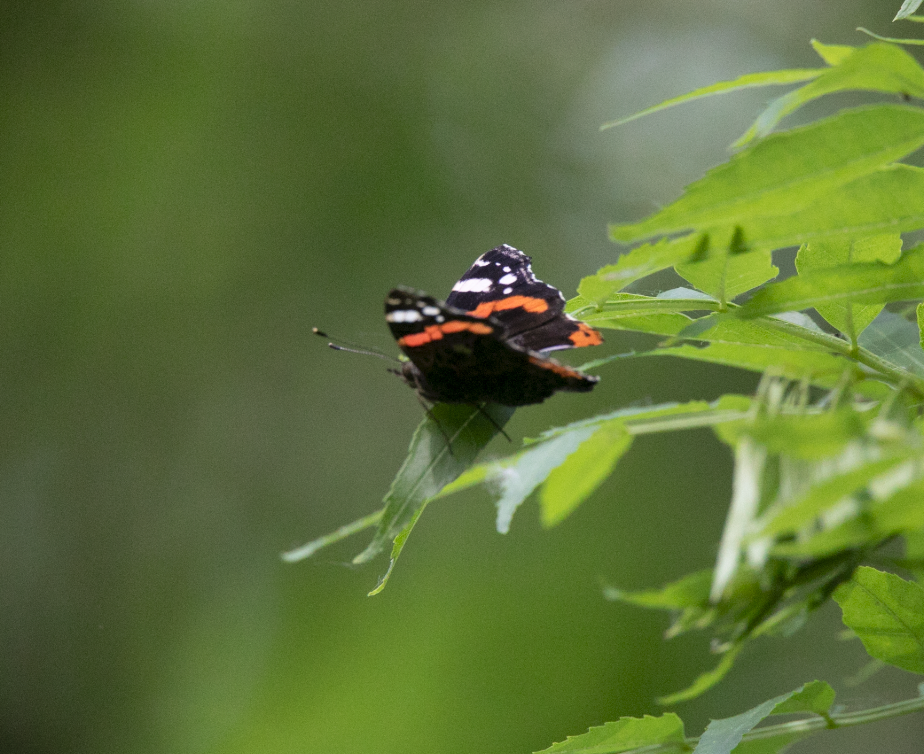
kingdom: Animalia
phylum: Arthropoda
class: Insecta
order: Lepidoptera
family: Nymphalidae
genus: Vanessa
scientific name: Vanessa atalanta
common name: Red admiral
